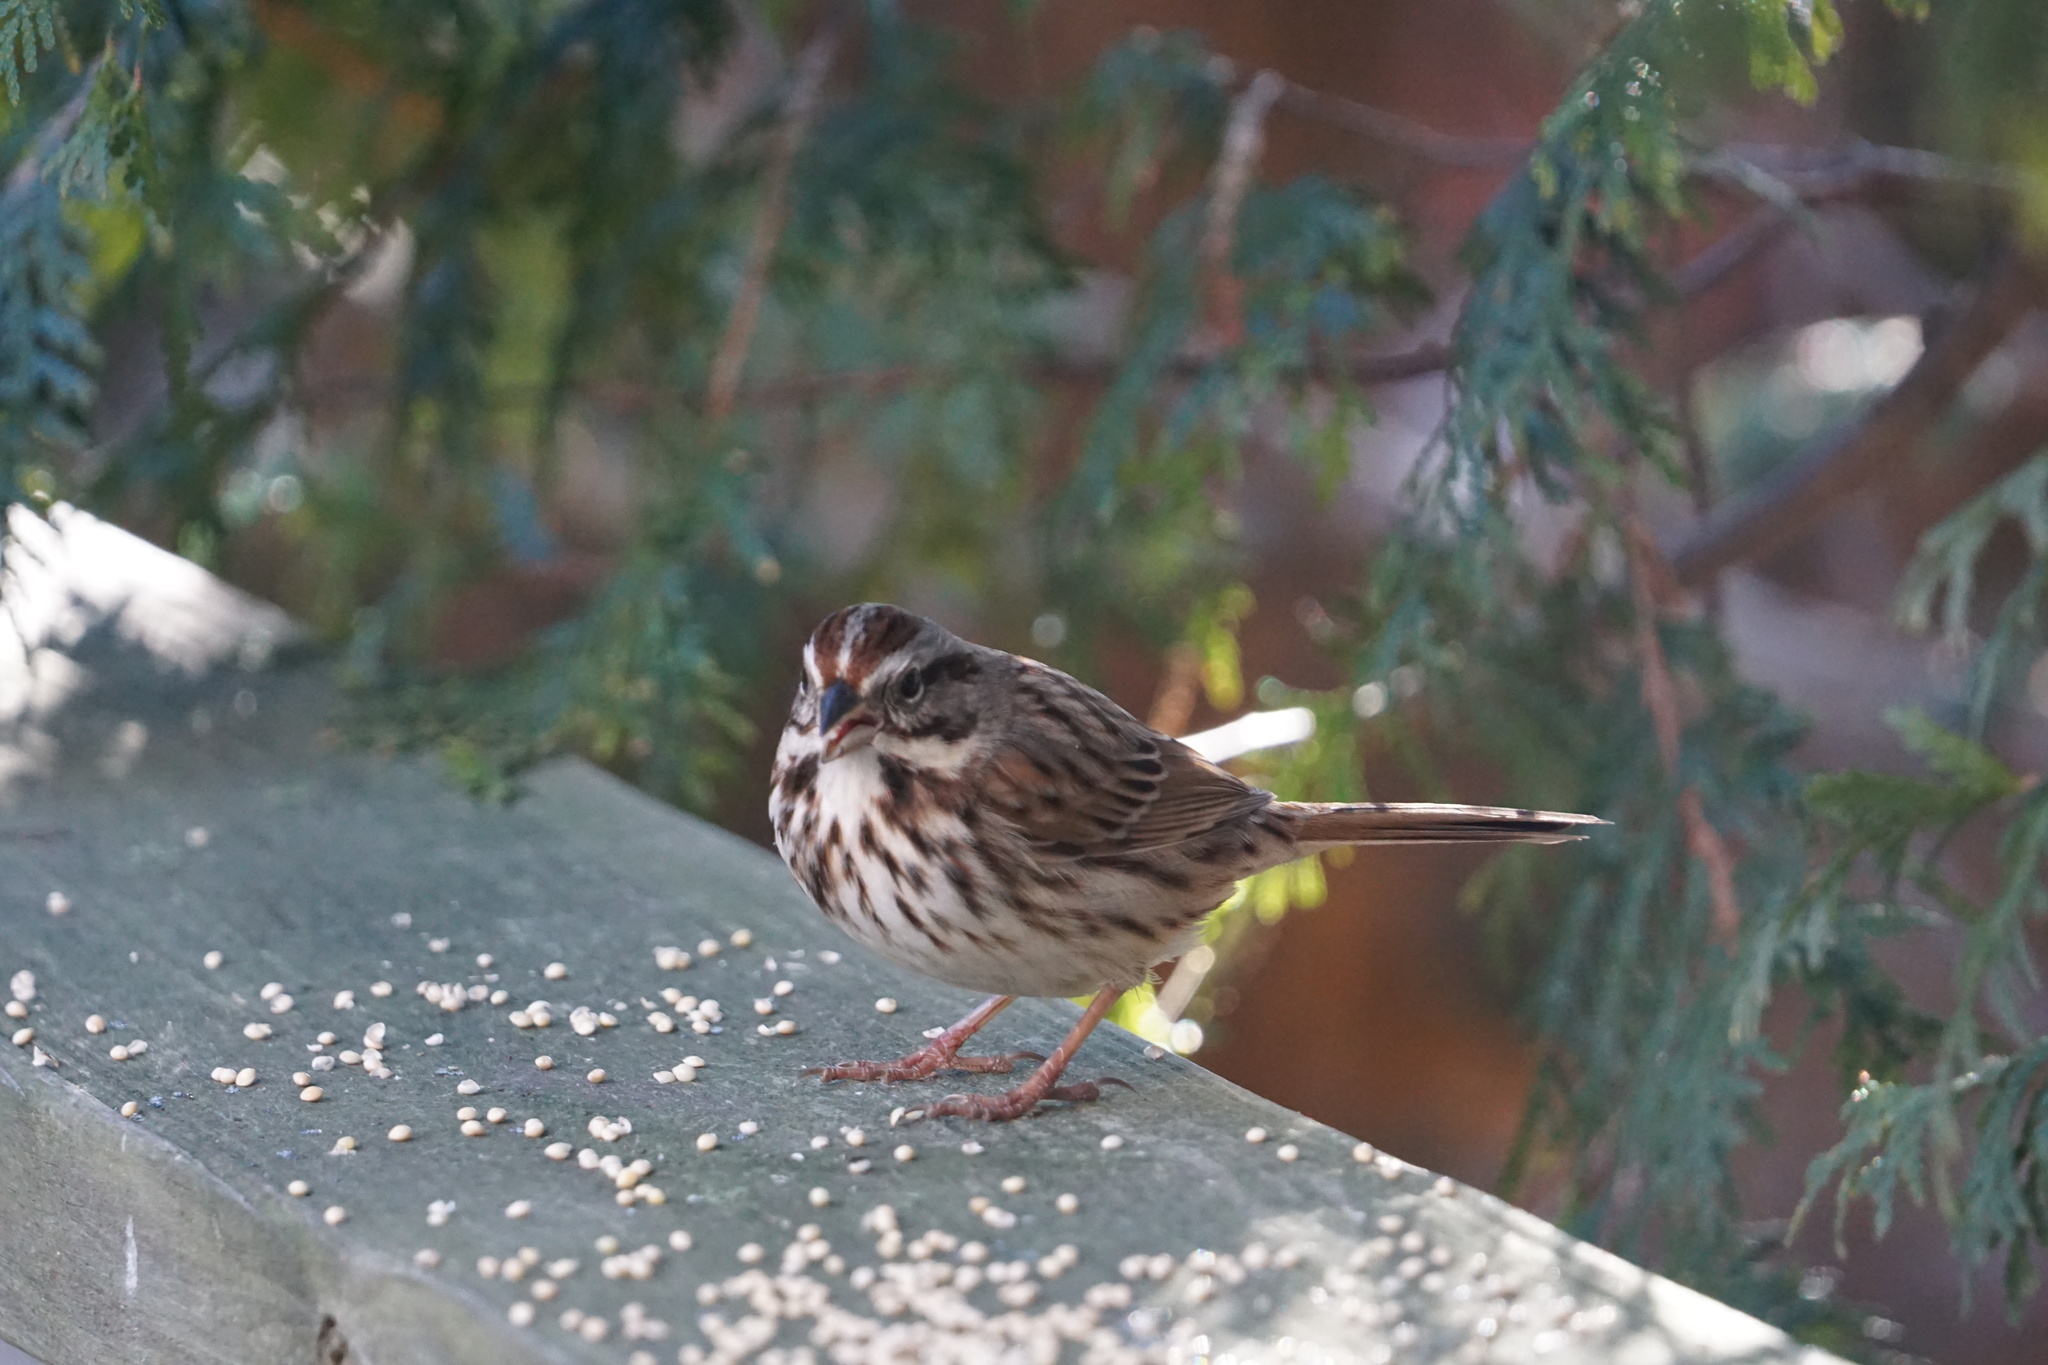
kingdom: Animalia
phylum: Chordata
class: Aves
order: Passeriformes
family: Passerellidae
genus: Melospiza
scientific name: Melospiza melodia
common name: Song sparrow
